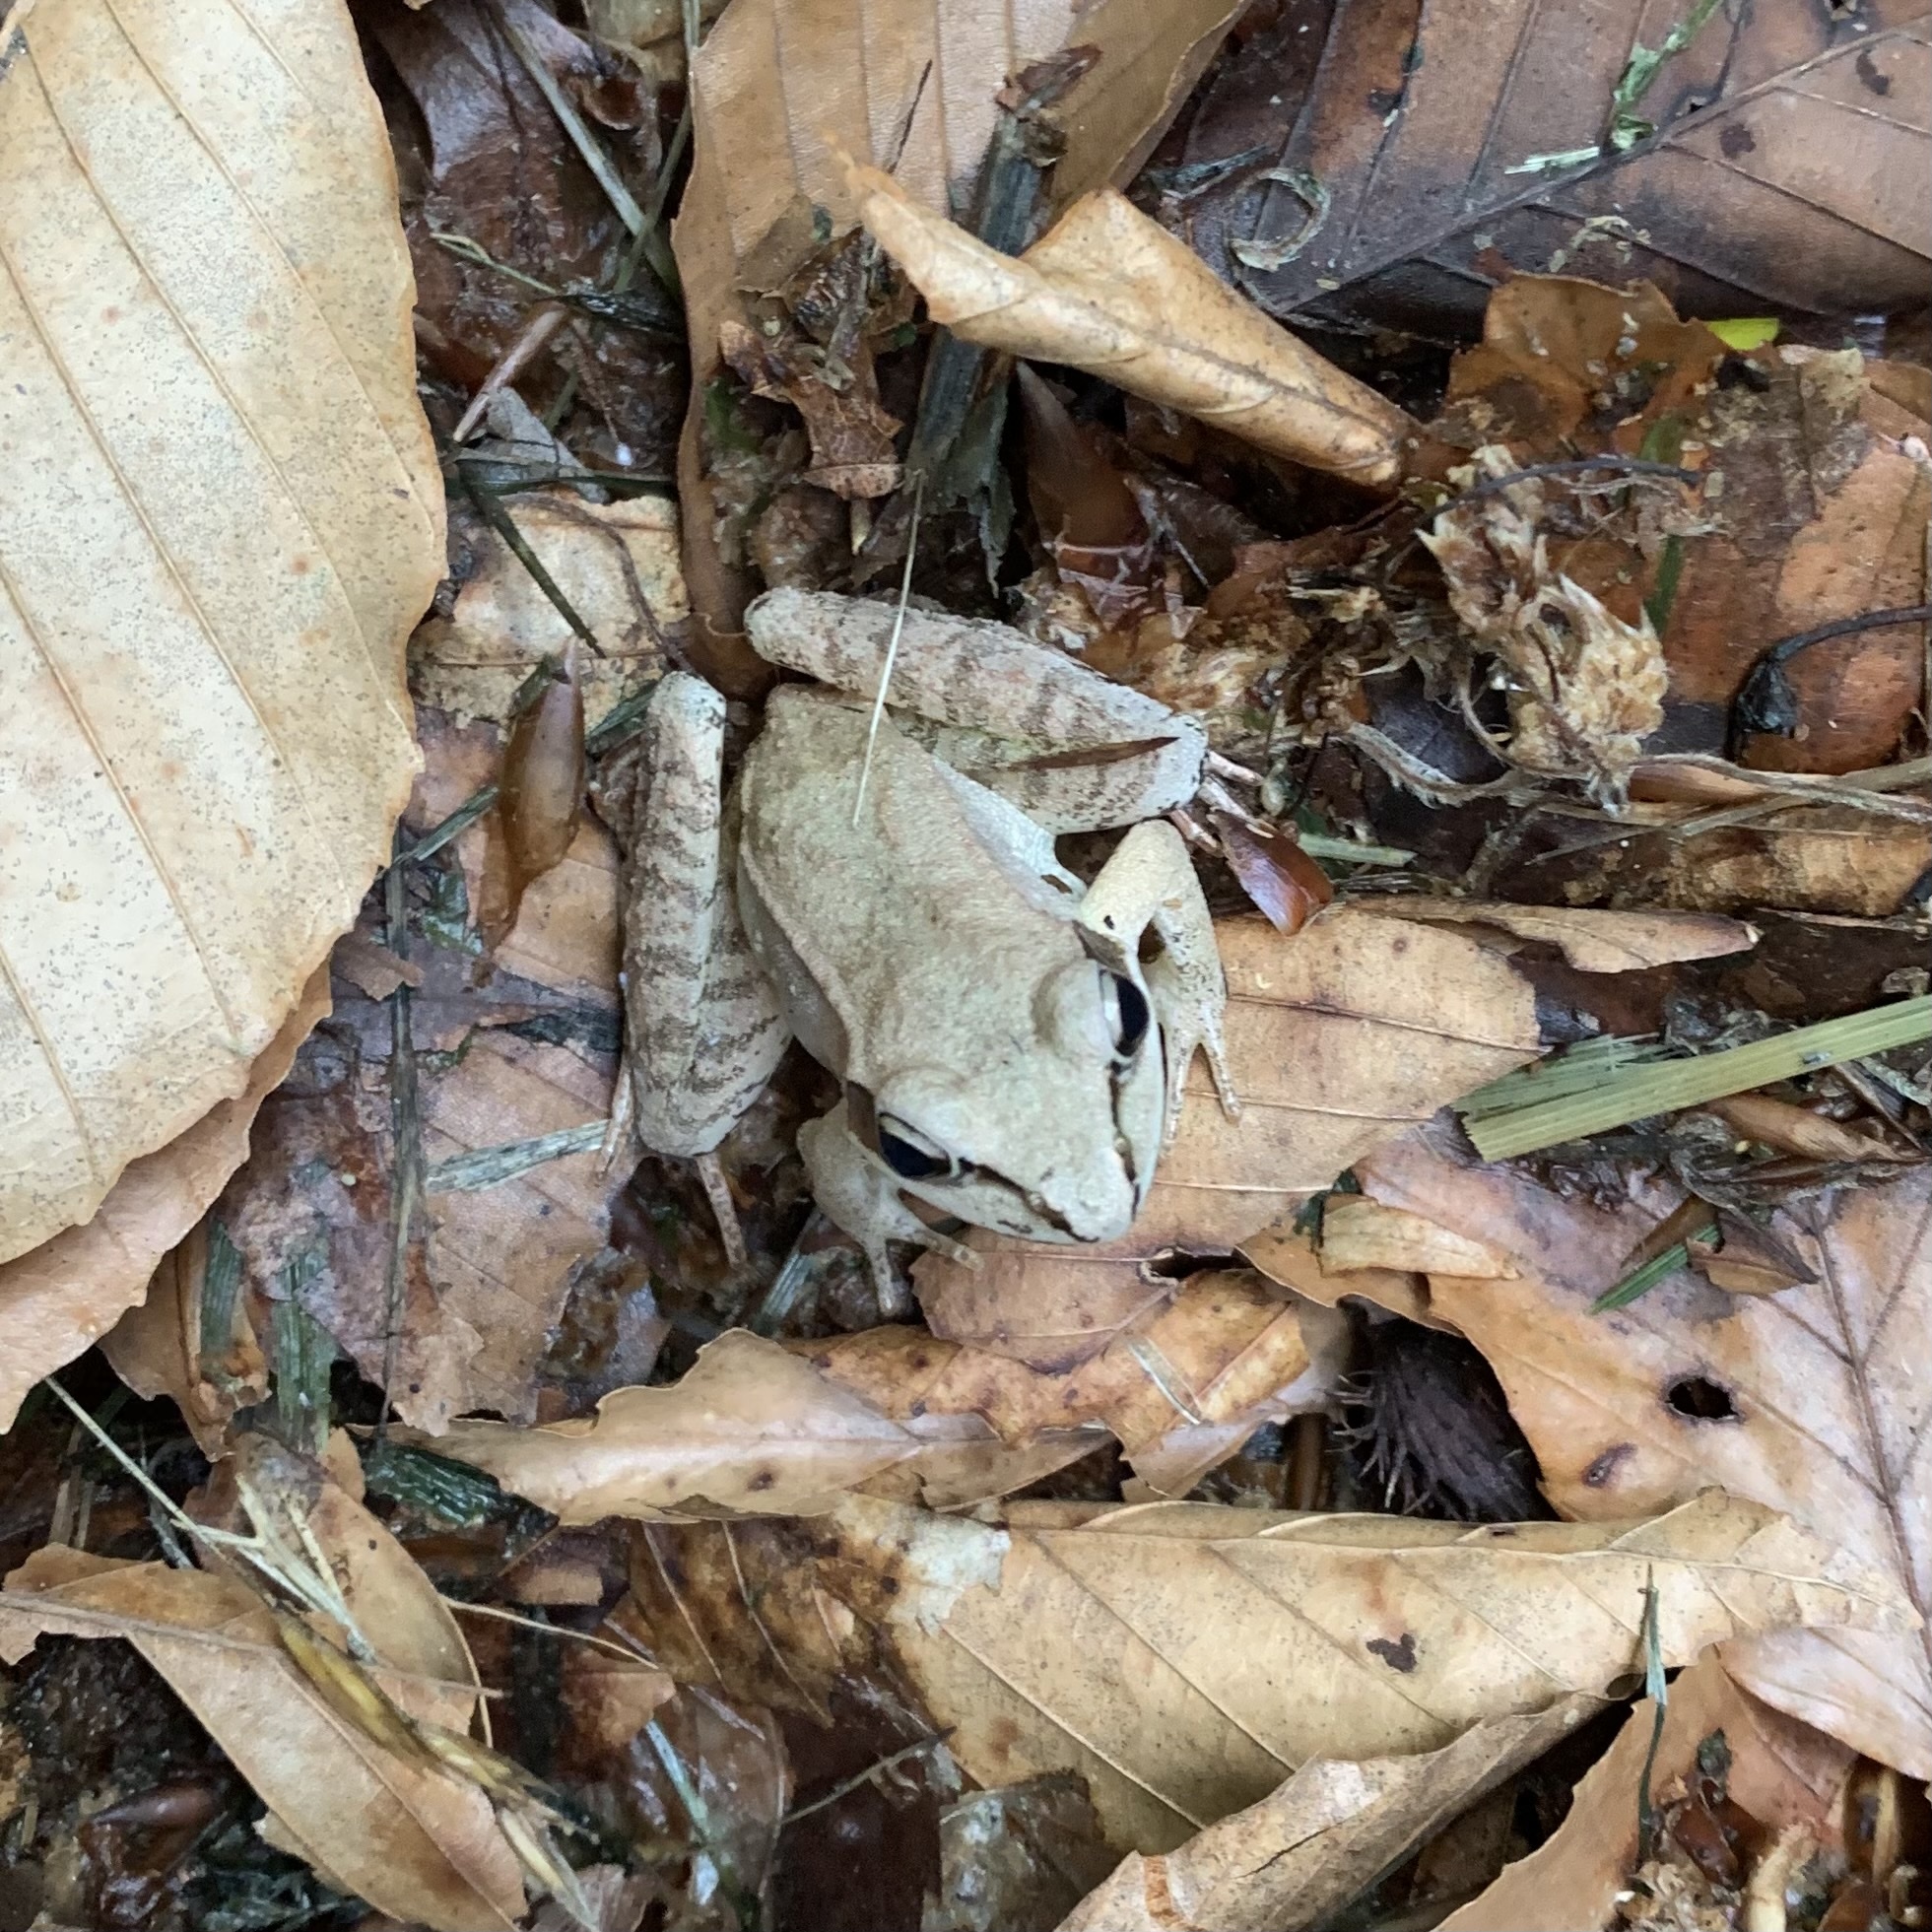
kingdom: Animalia
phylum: Chordata
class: Amphibia
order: Anura
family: Ranidae
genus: Lithobates
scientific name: Lithobates sylvaticus
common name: Wood frog
